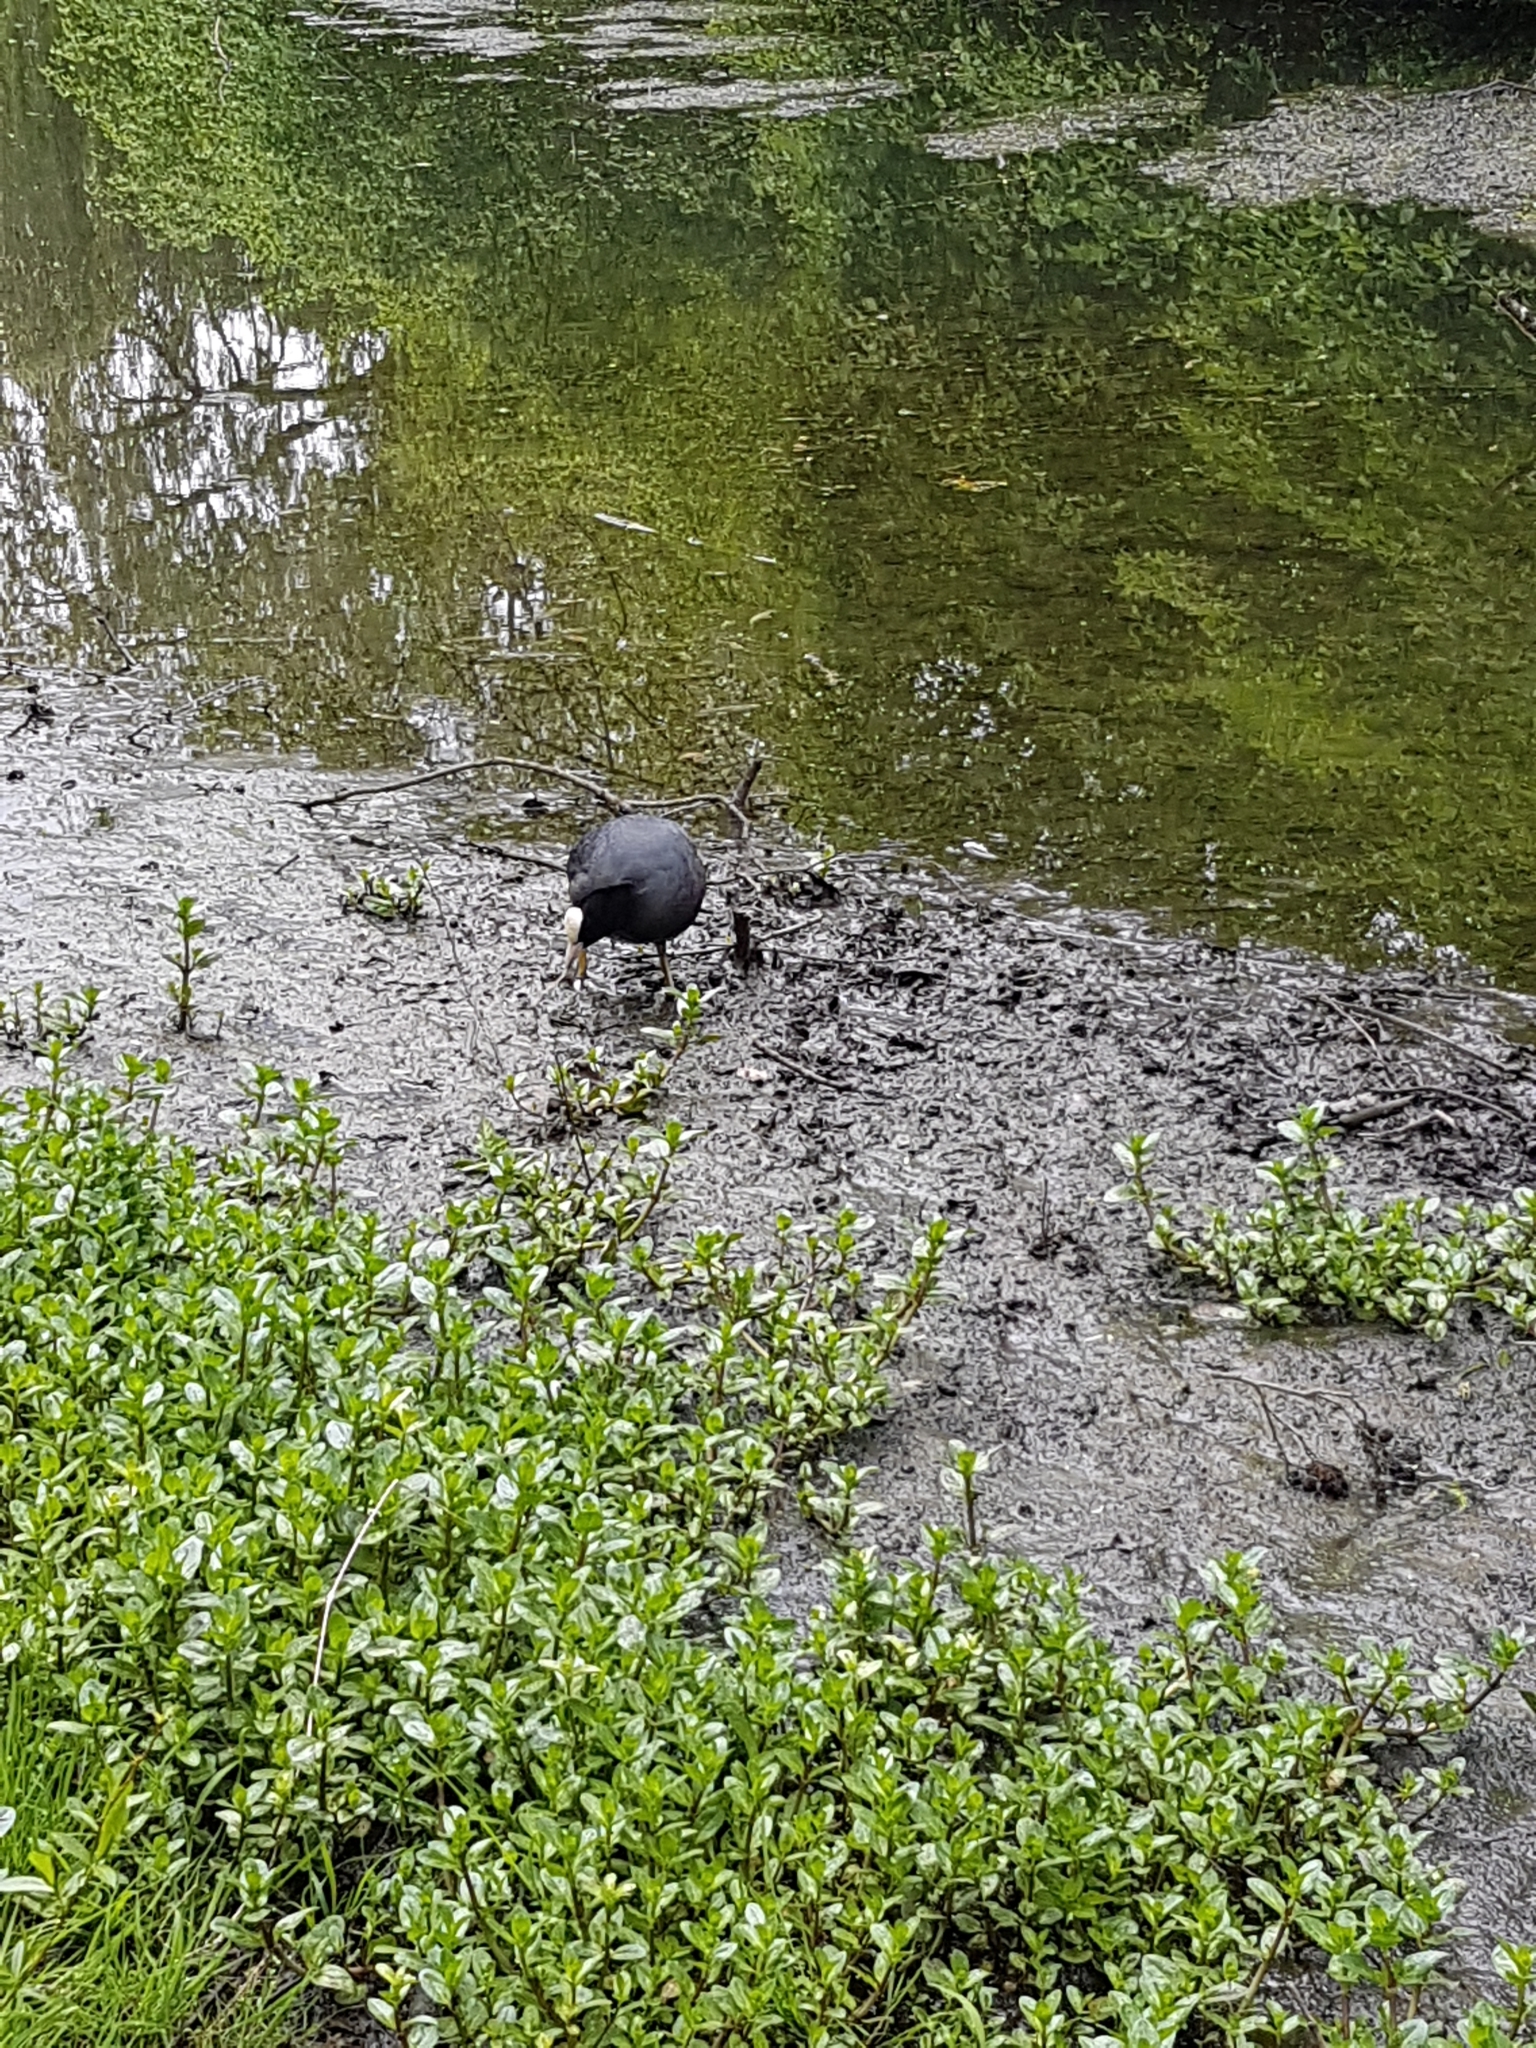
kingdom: Animalia
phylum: Chordata
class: Aves
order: Gruiformes
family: Rallidae
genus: Fulica
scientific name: Fulica atra
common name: Eurasian coot
